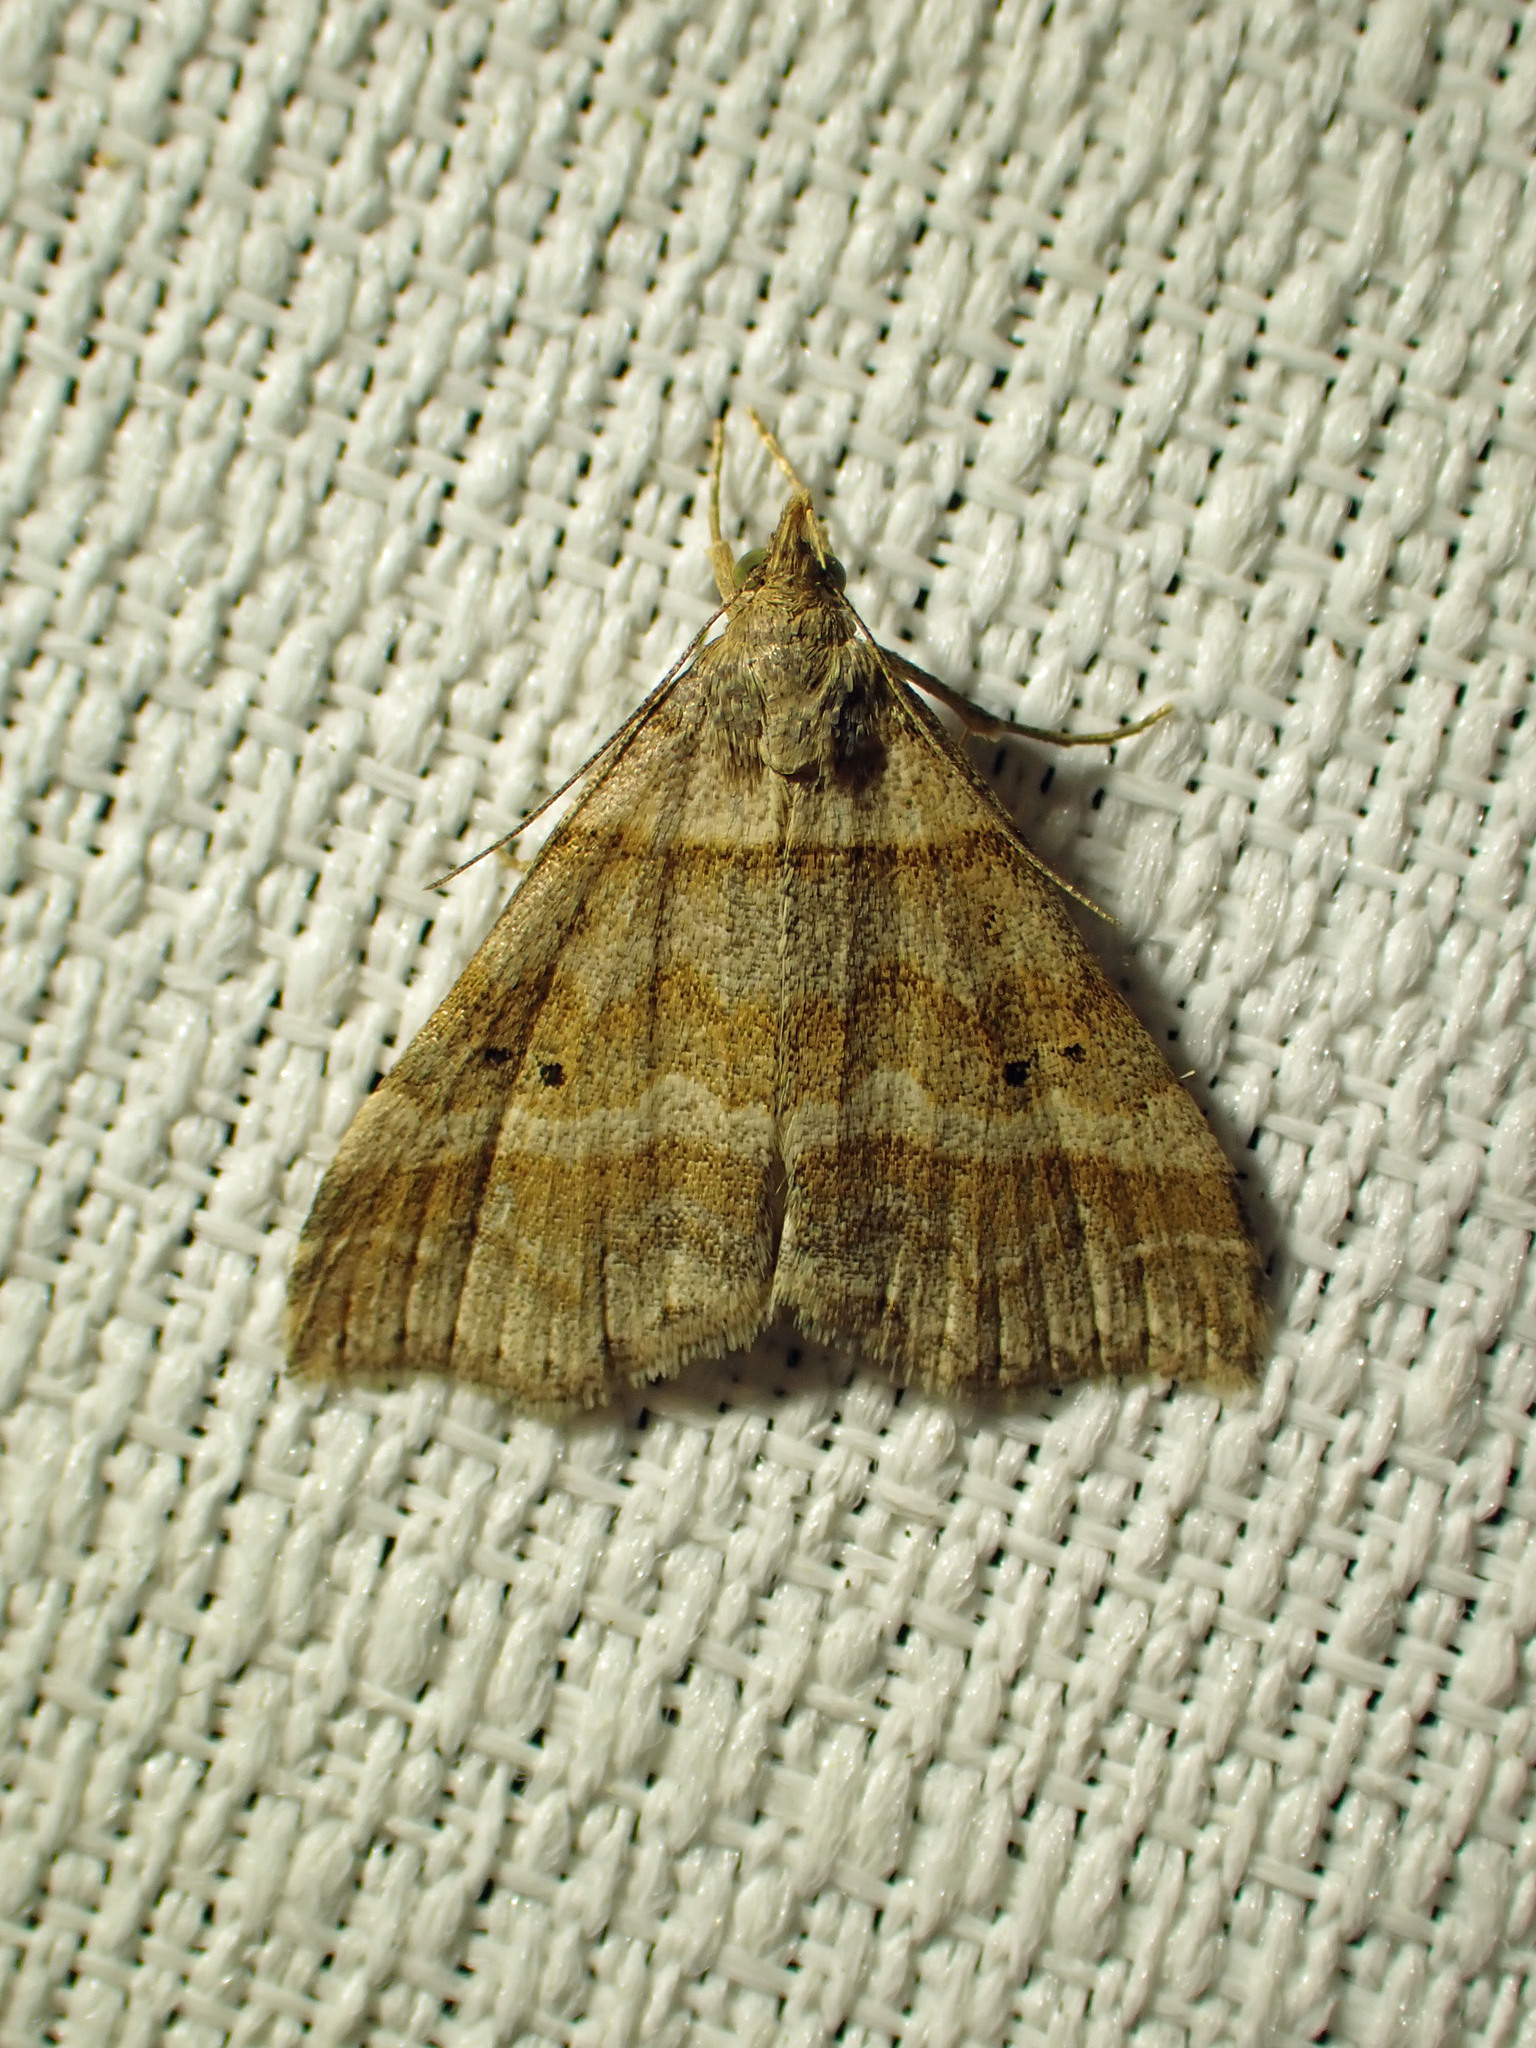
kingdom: Animalia
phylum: Arthropoda
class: Insecta
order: Lepidoptera
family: Erebidae
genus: Phaeolita
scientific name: Phaeolita pyramusalis
